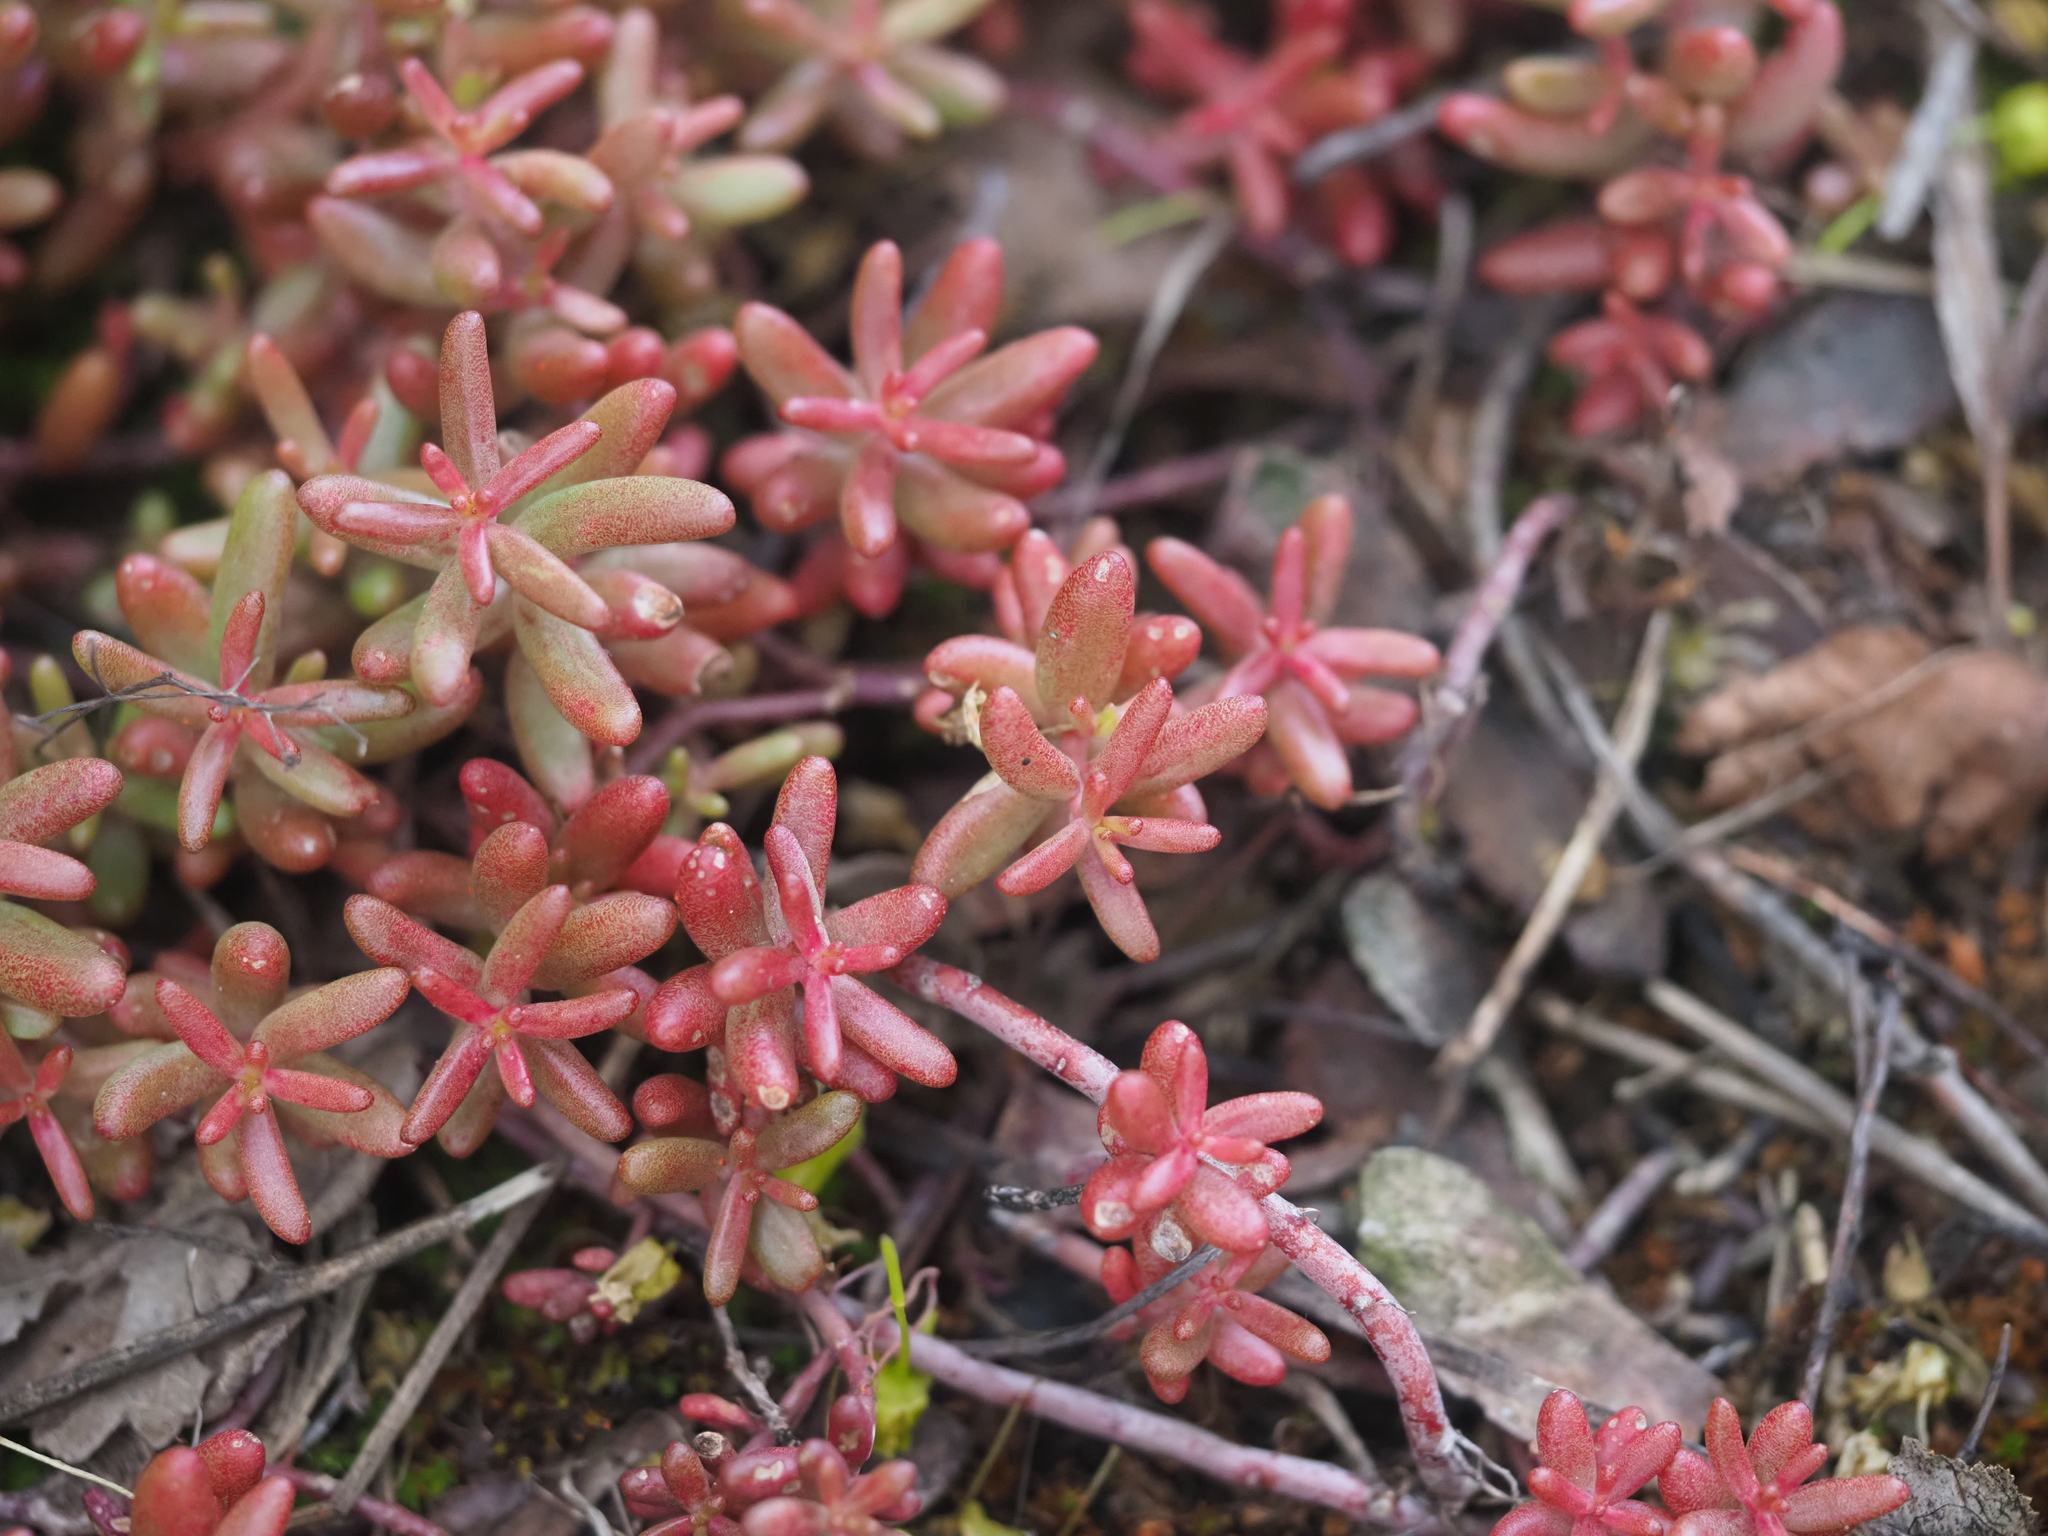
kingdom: Plantae
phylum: Tracheophyta
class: Magnoliopsida
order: Saxifragales
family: Crassulaceae
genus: Sedum
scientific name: Sedum album
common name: White stonecrop
